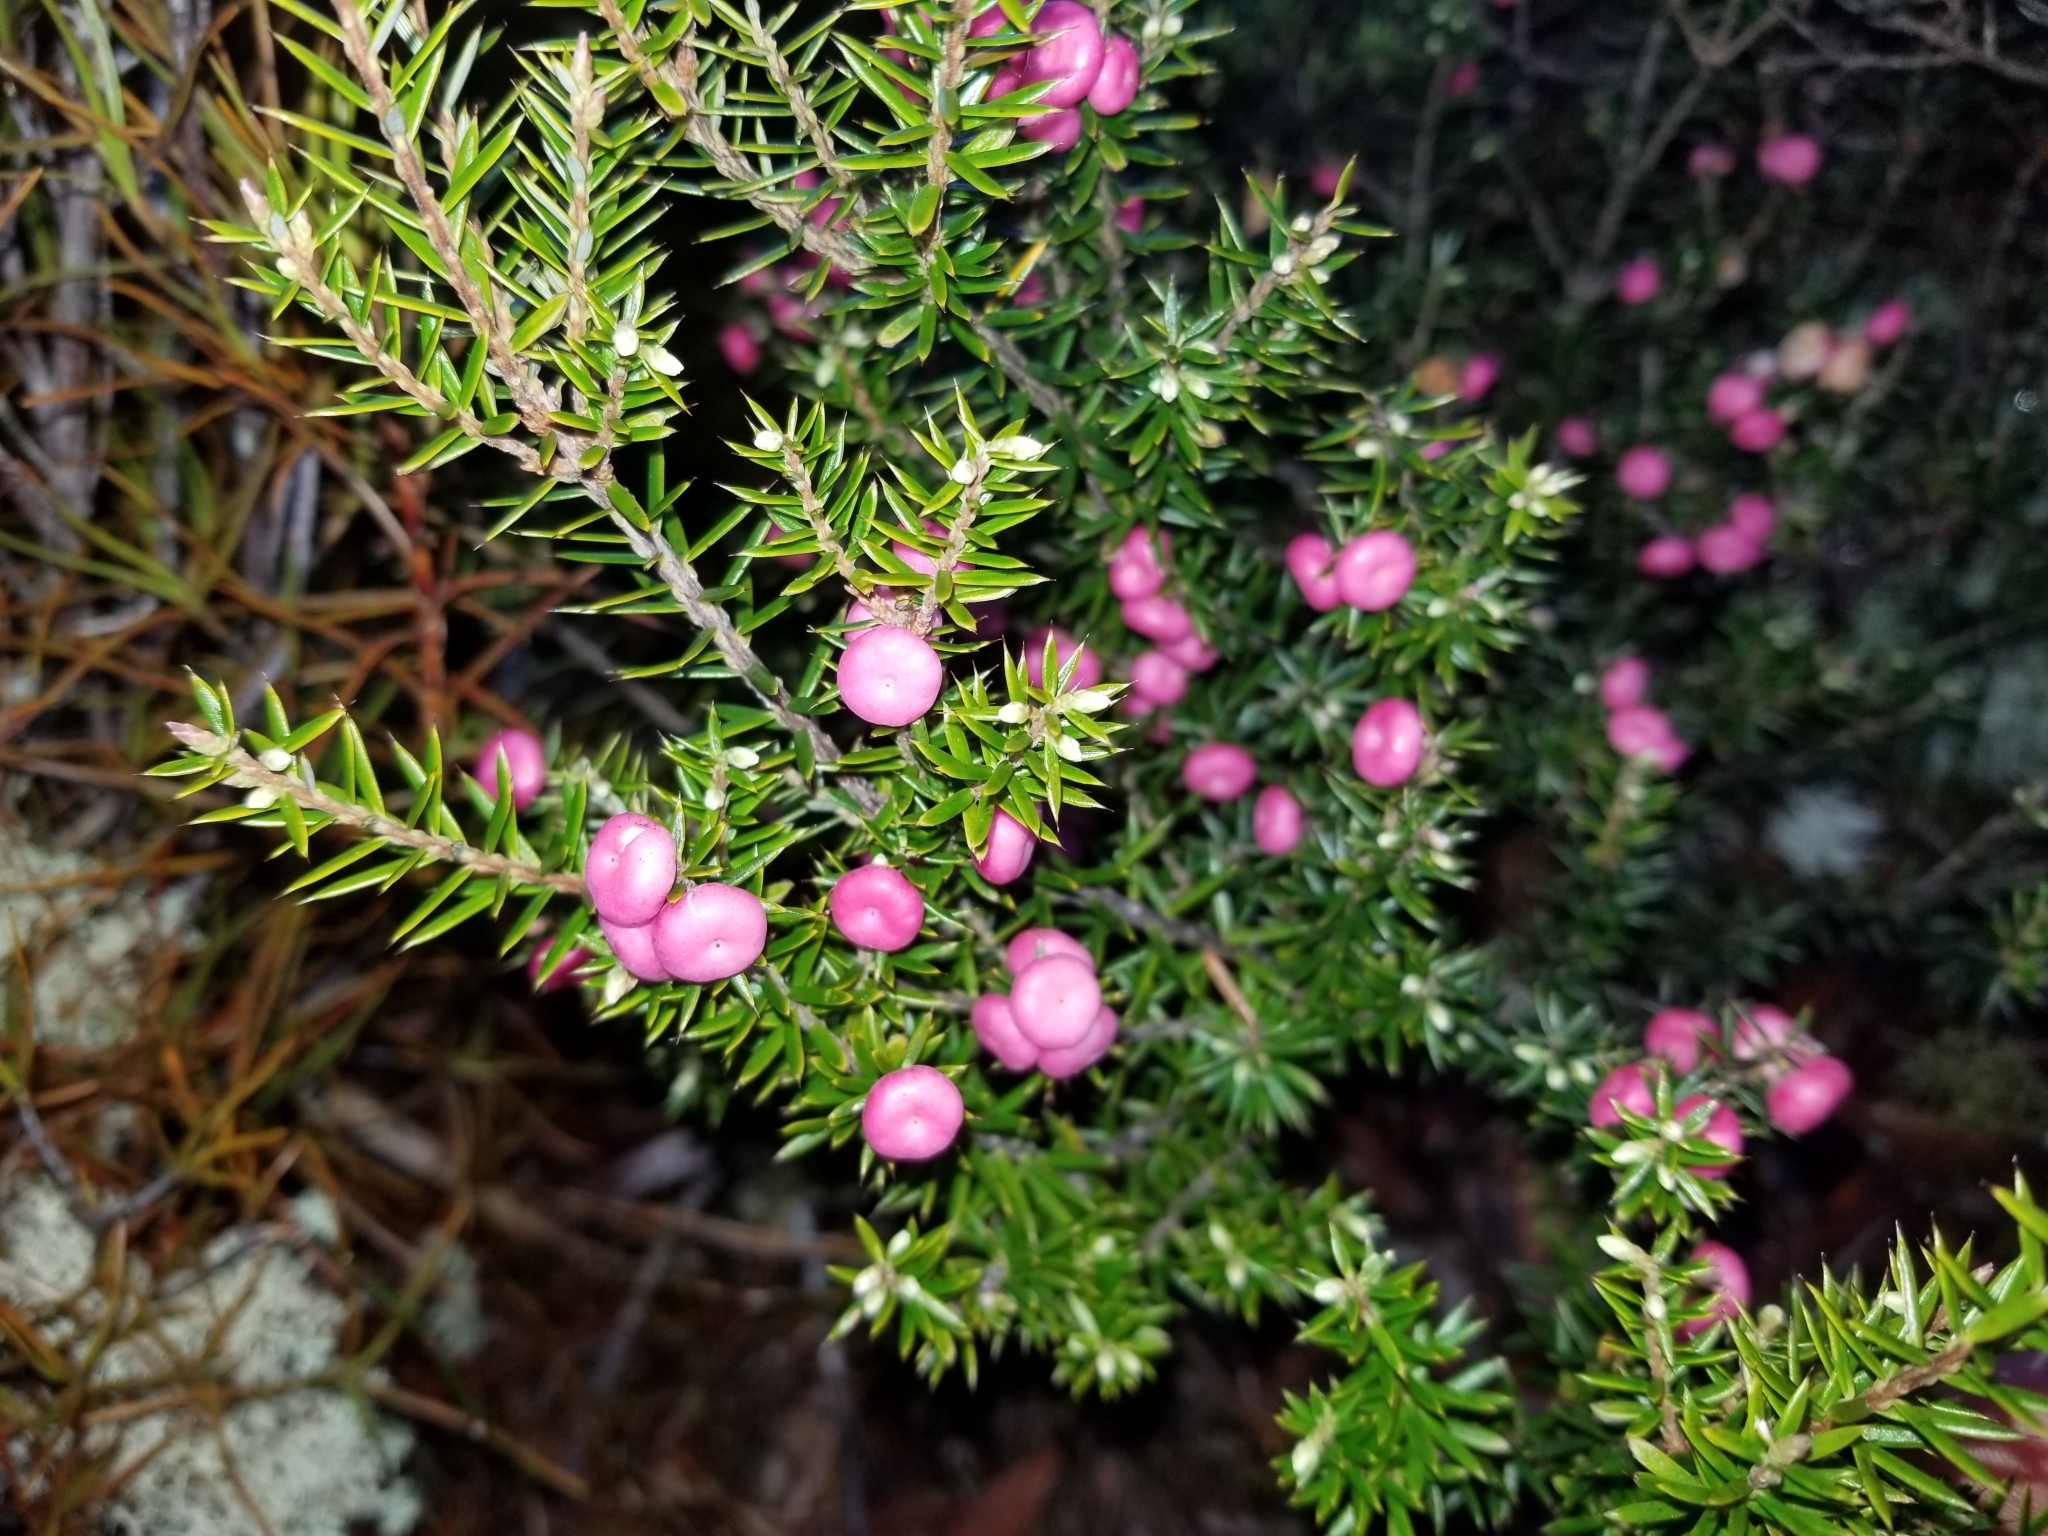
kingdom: Plantae
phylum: Tracheophyta
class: Magnoliopsida
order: Ericales
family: Ericaceae
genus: Leptecophylla
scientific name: Leptecophylla juniperina
